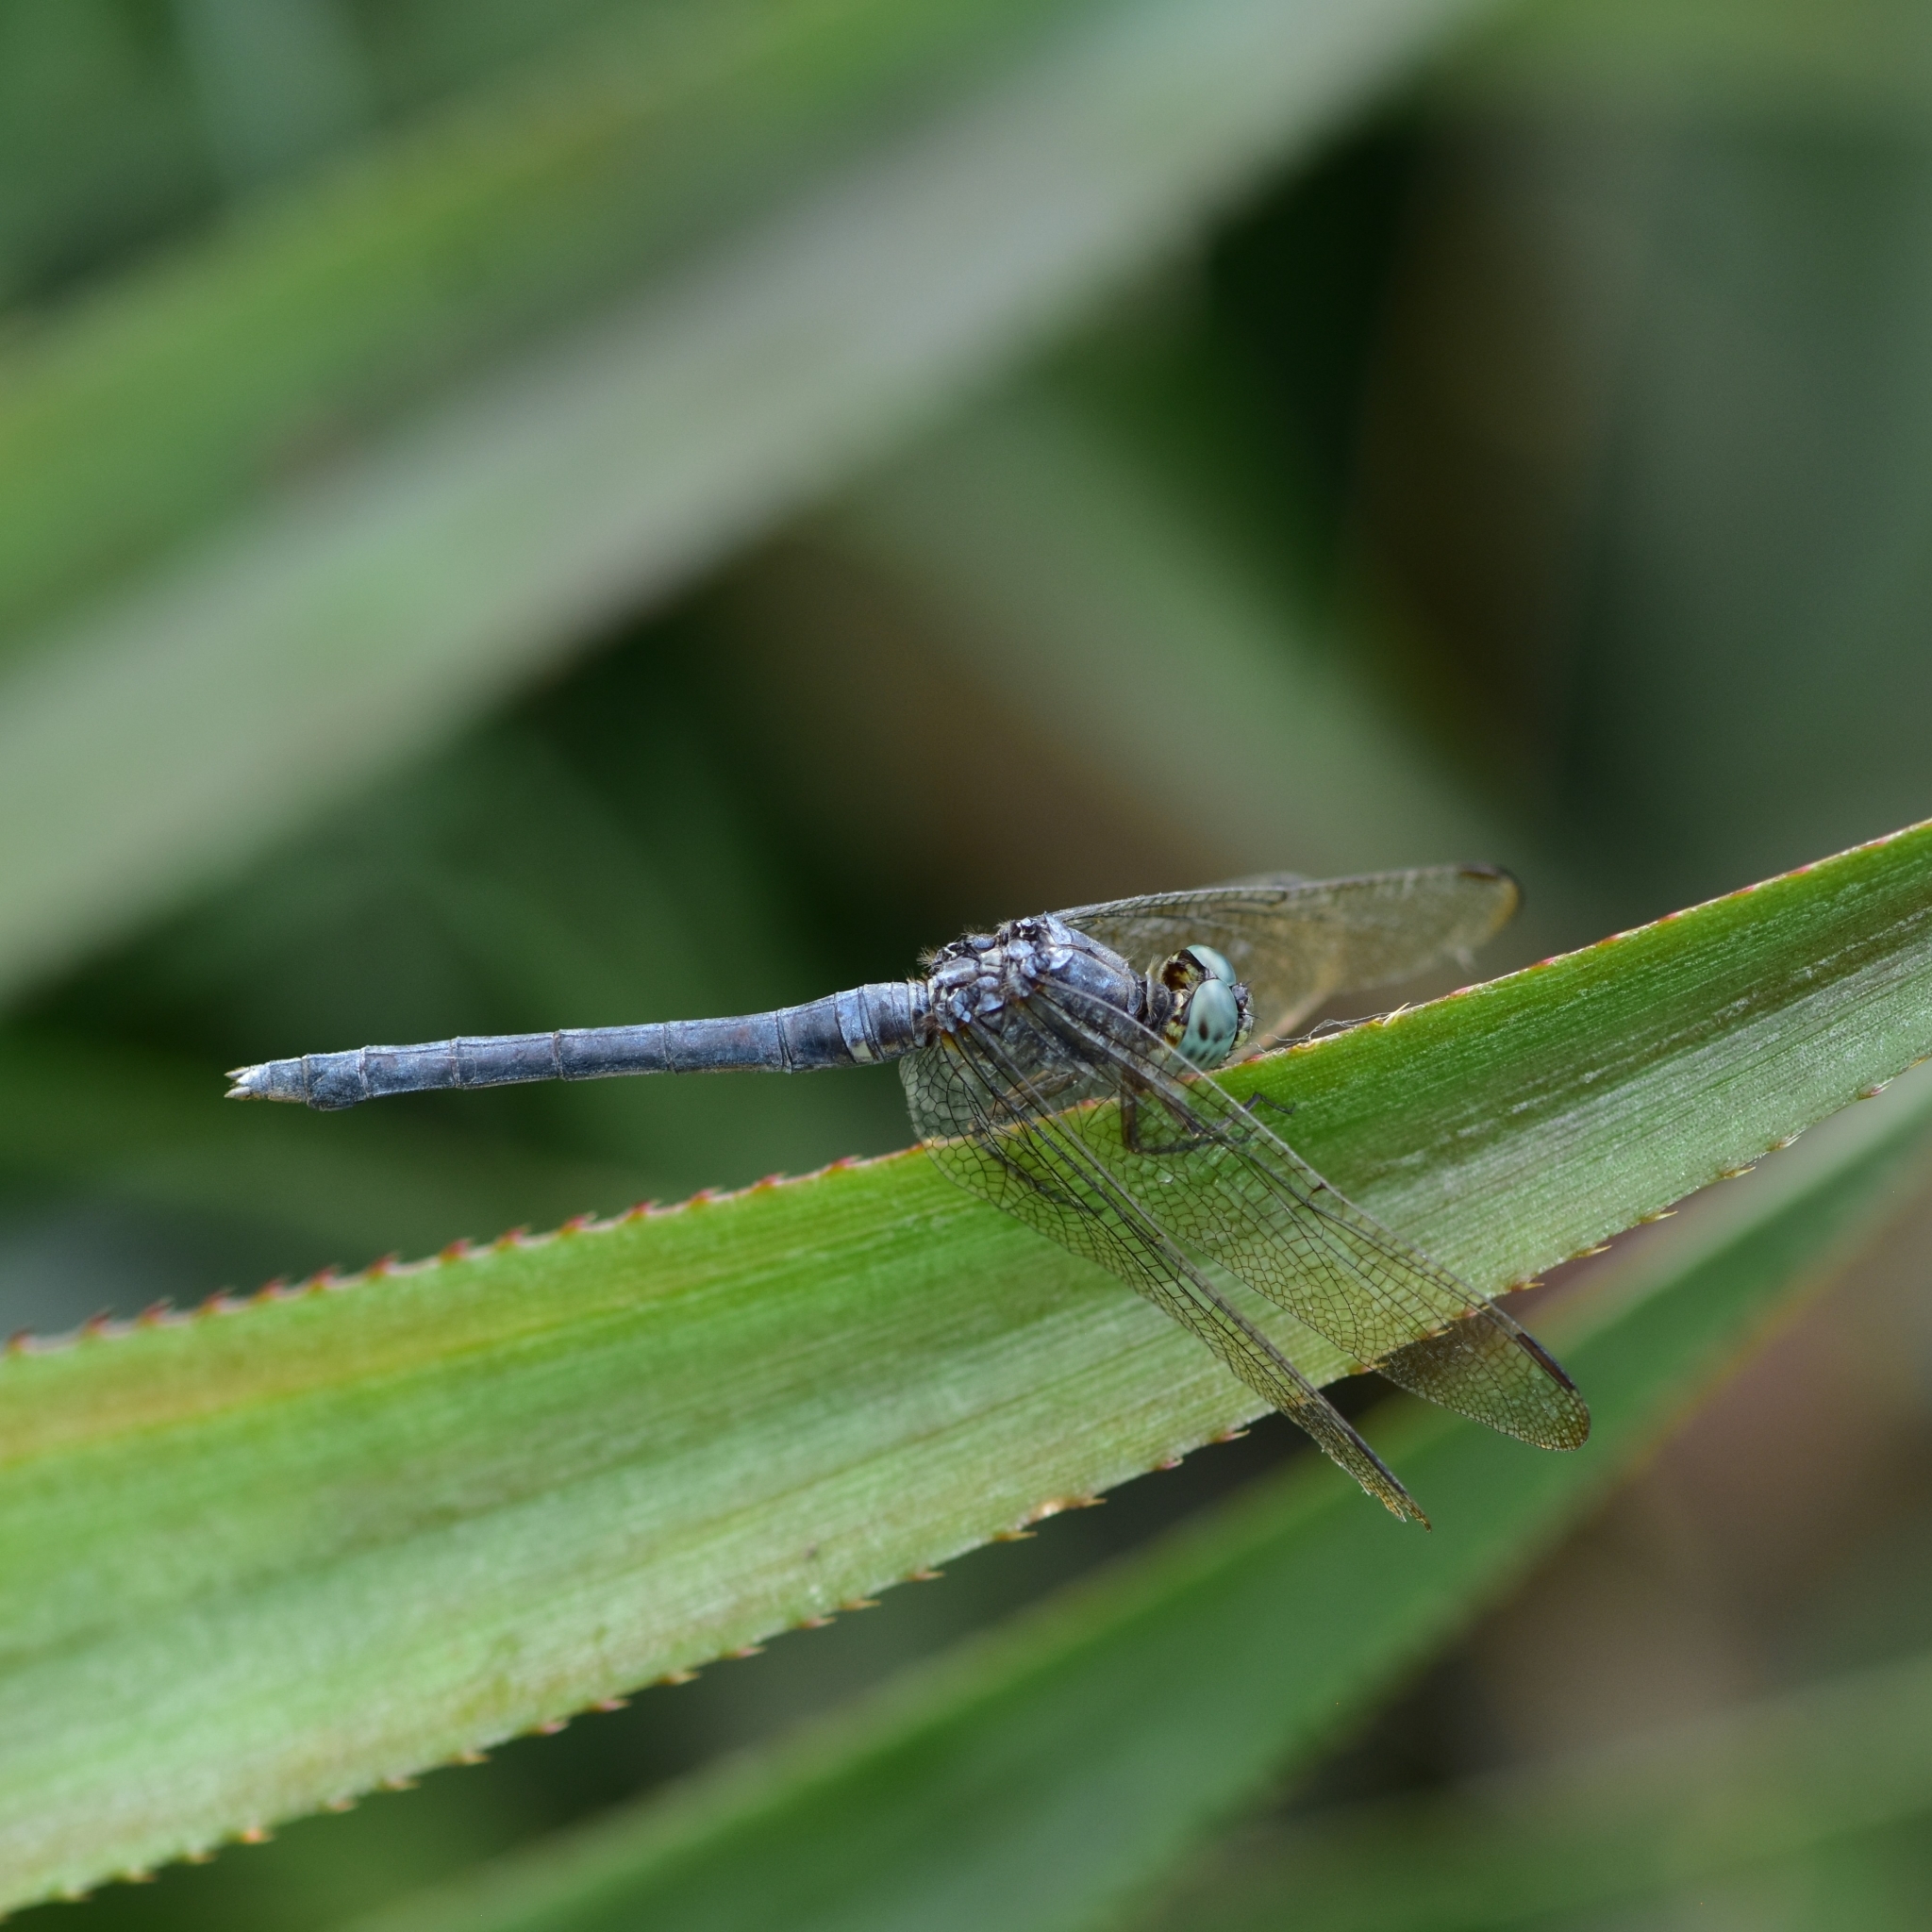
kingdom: Animalia
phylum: Arthropoda
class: Insecta
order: Odonata
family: Libellulidae
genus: Orthetrum
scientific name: Orthetrum luzonicum
